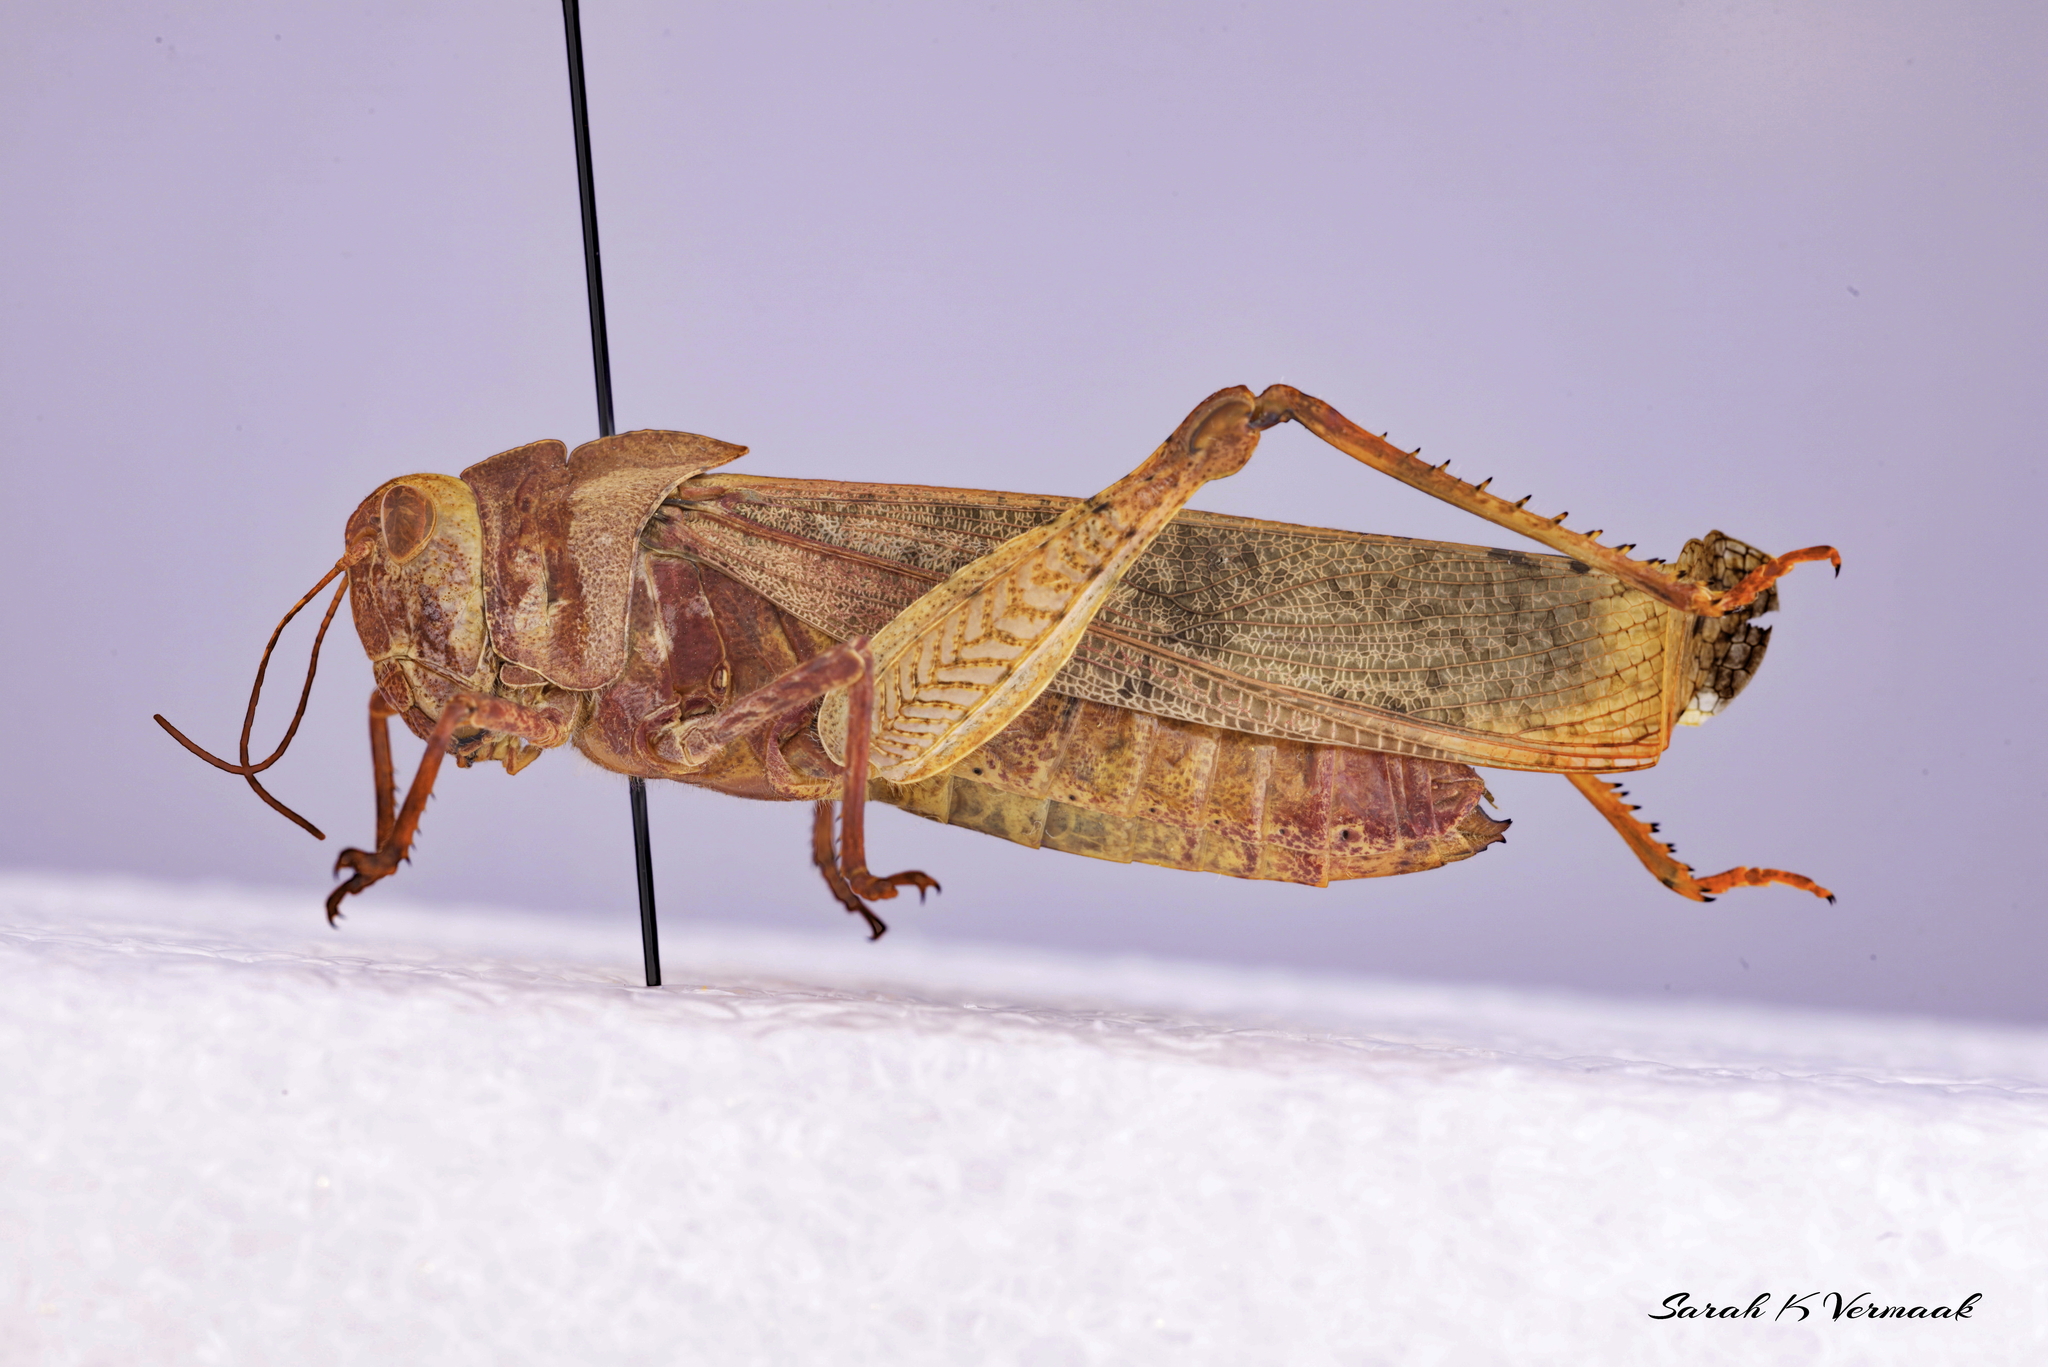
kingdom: Animalia
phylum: Arthropoda
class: Insecta
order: Orthoptera
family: Acrididae
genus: Dissosteira
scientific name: Dissosteira carolina
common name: Carolina grasshopper
